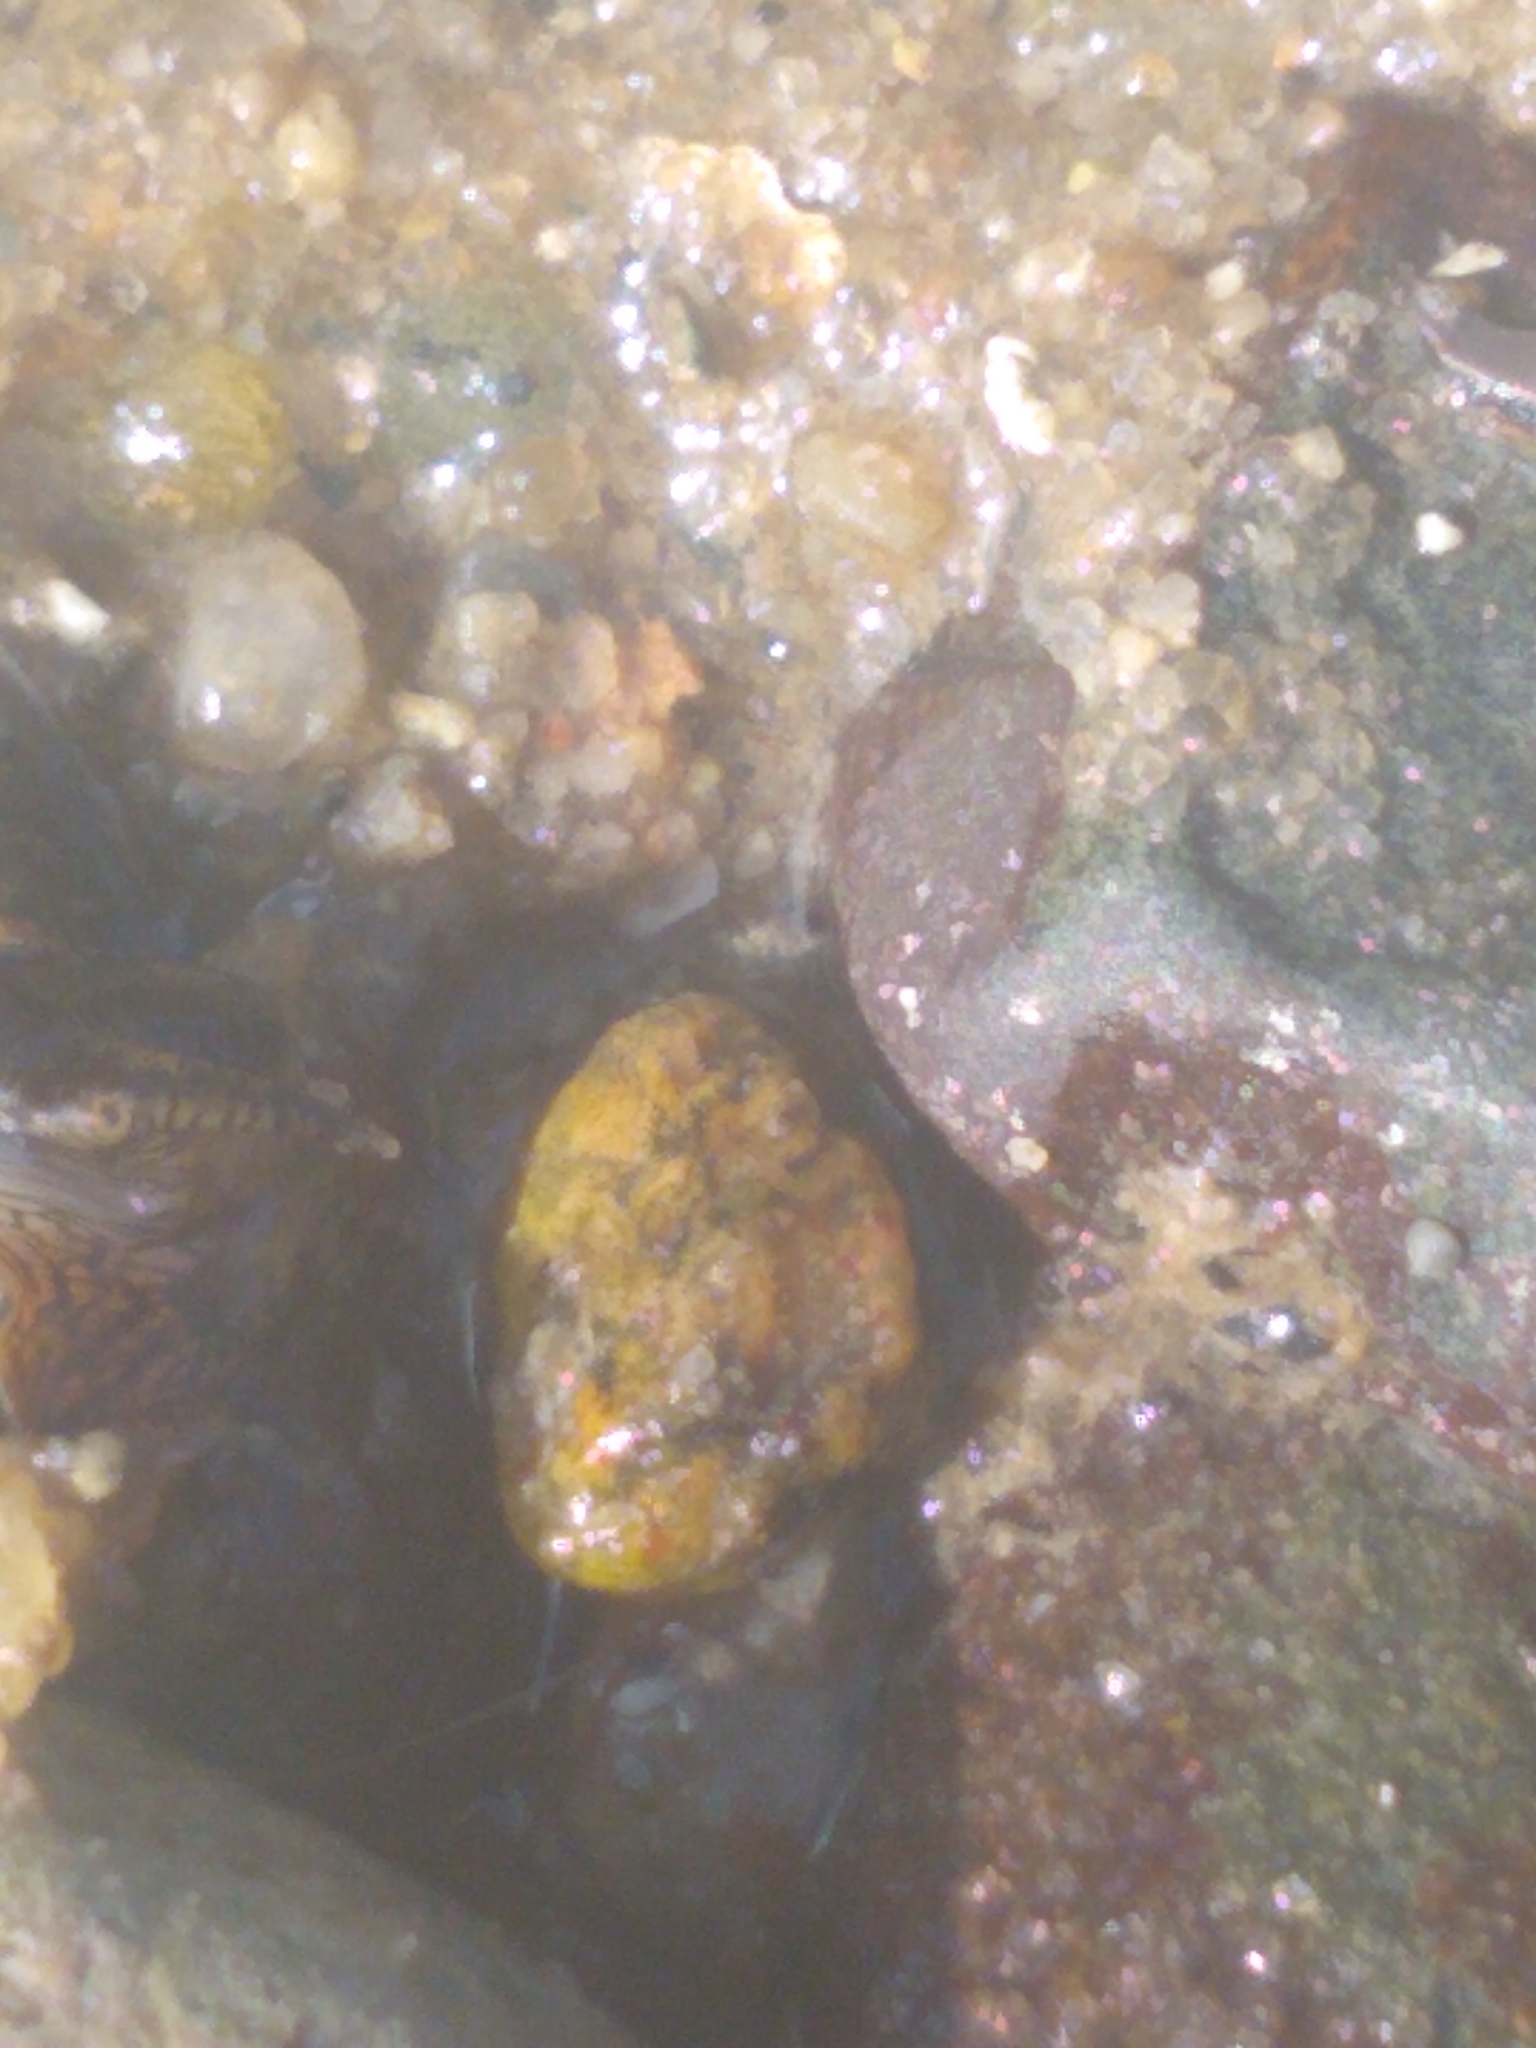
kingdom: Animalia
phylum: Mollusca
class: Gastropoda
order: Littorinimorpha
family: Littorinidae
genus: Littorina
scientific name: Littorina littorea
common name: Common periwinkle
